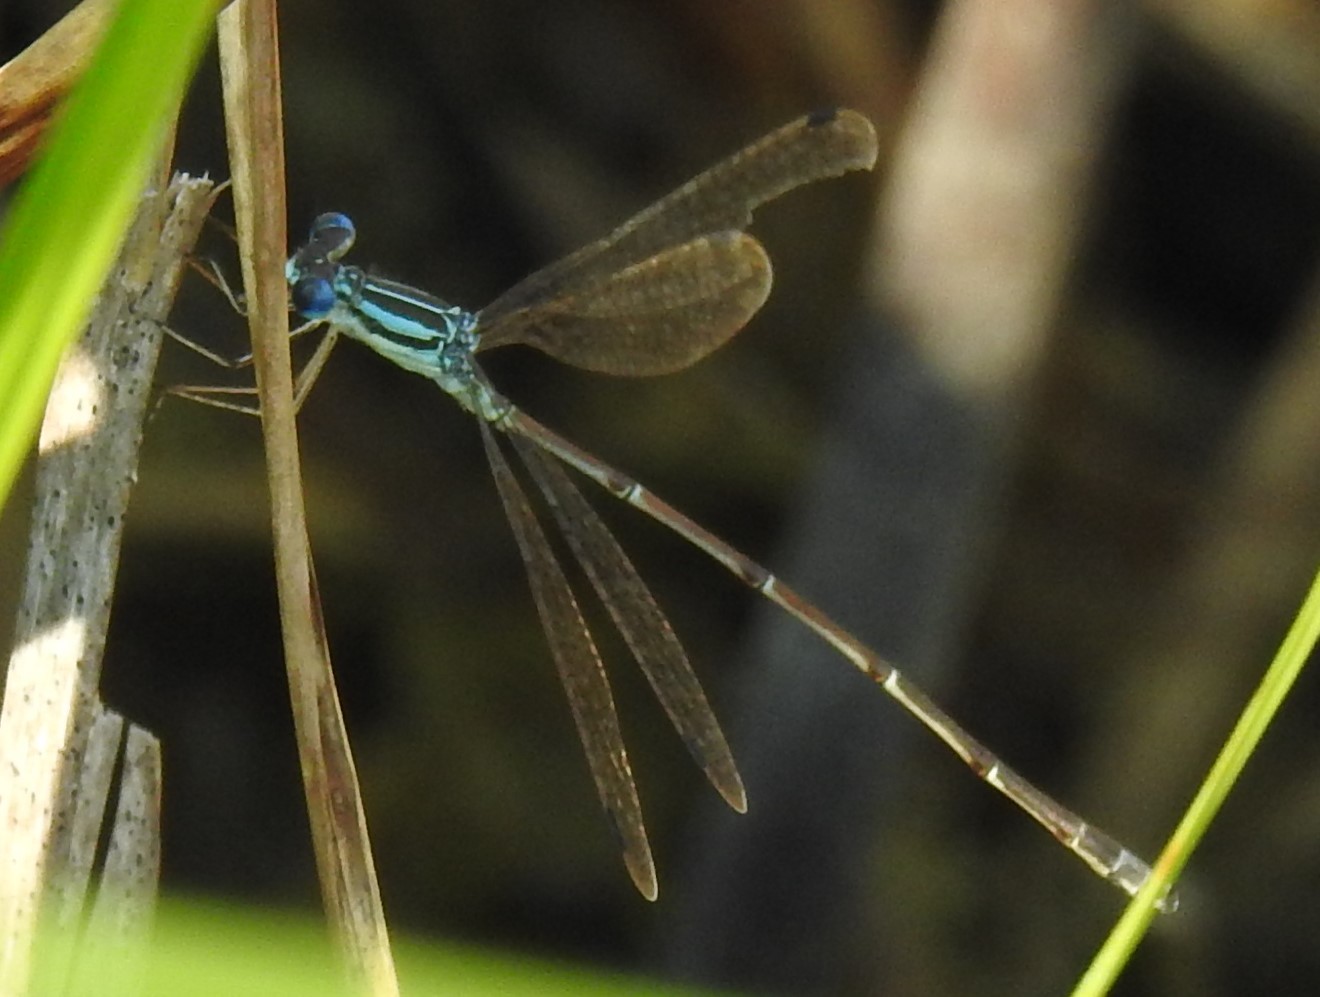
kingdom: Animalia
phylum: Arthropoda
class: Insecta
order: Odonata
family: Lestidae
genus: Lestes
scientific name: Lestes rectangularis
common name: Slender spreadwing
